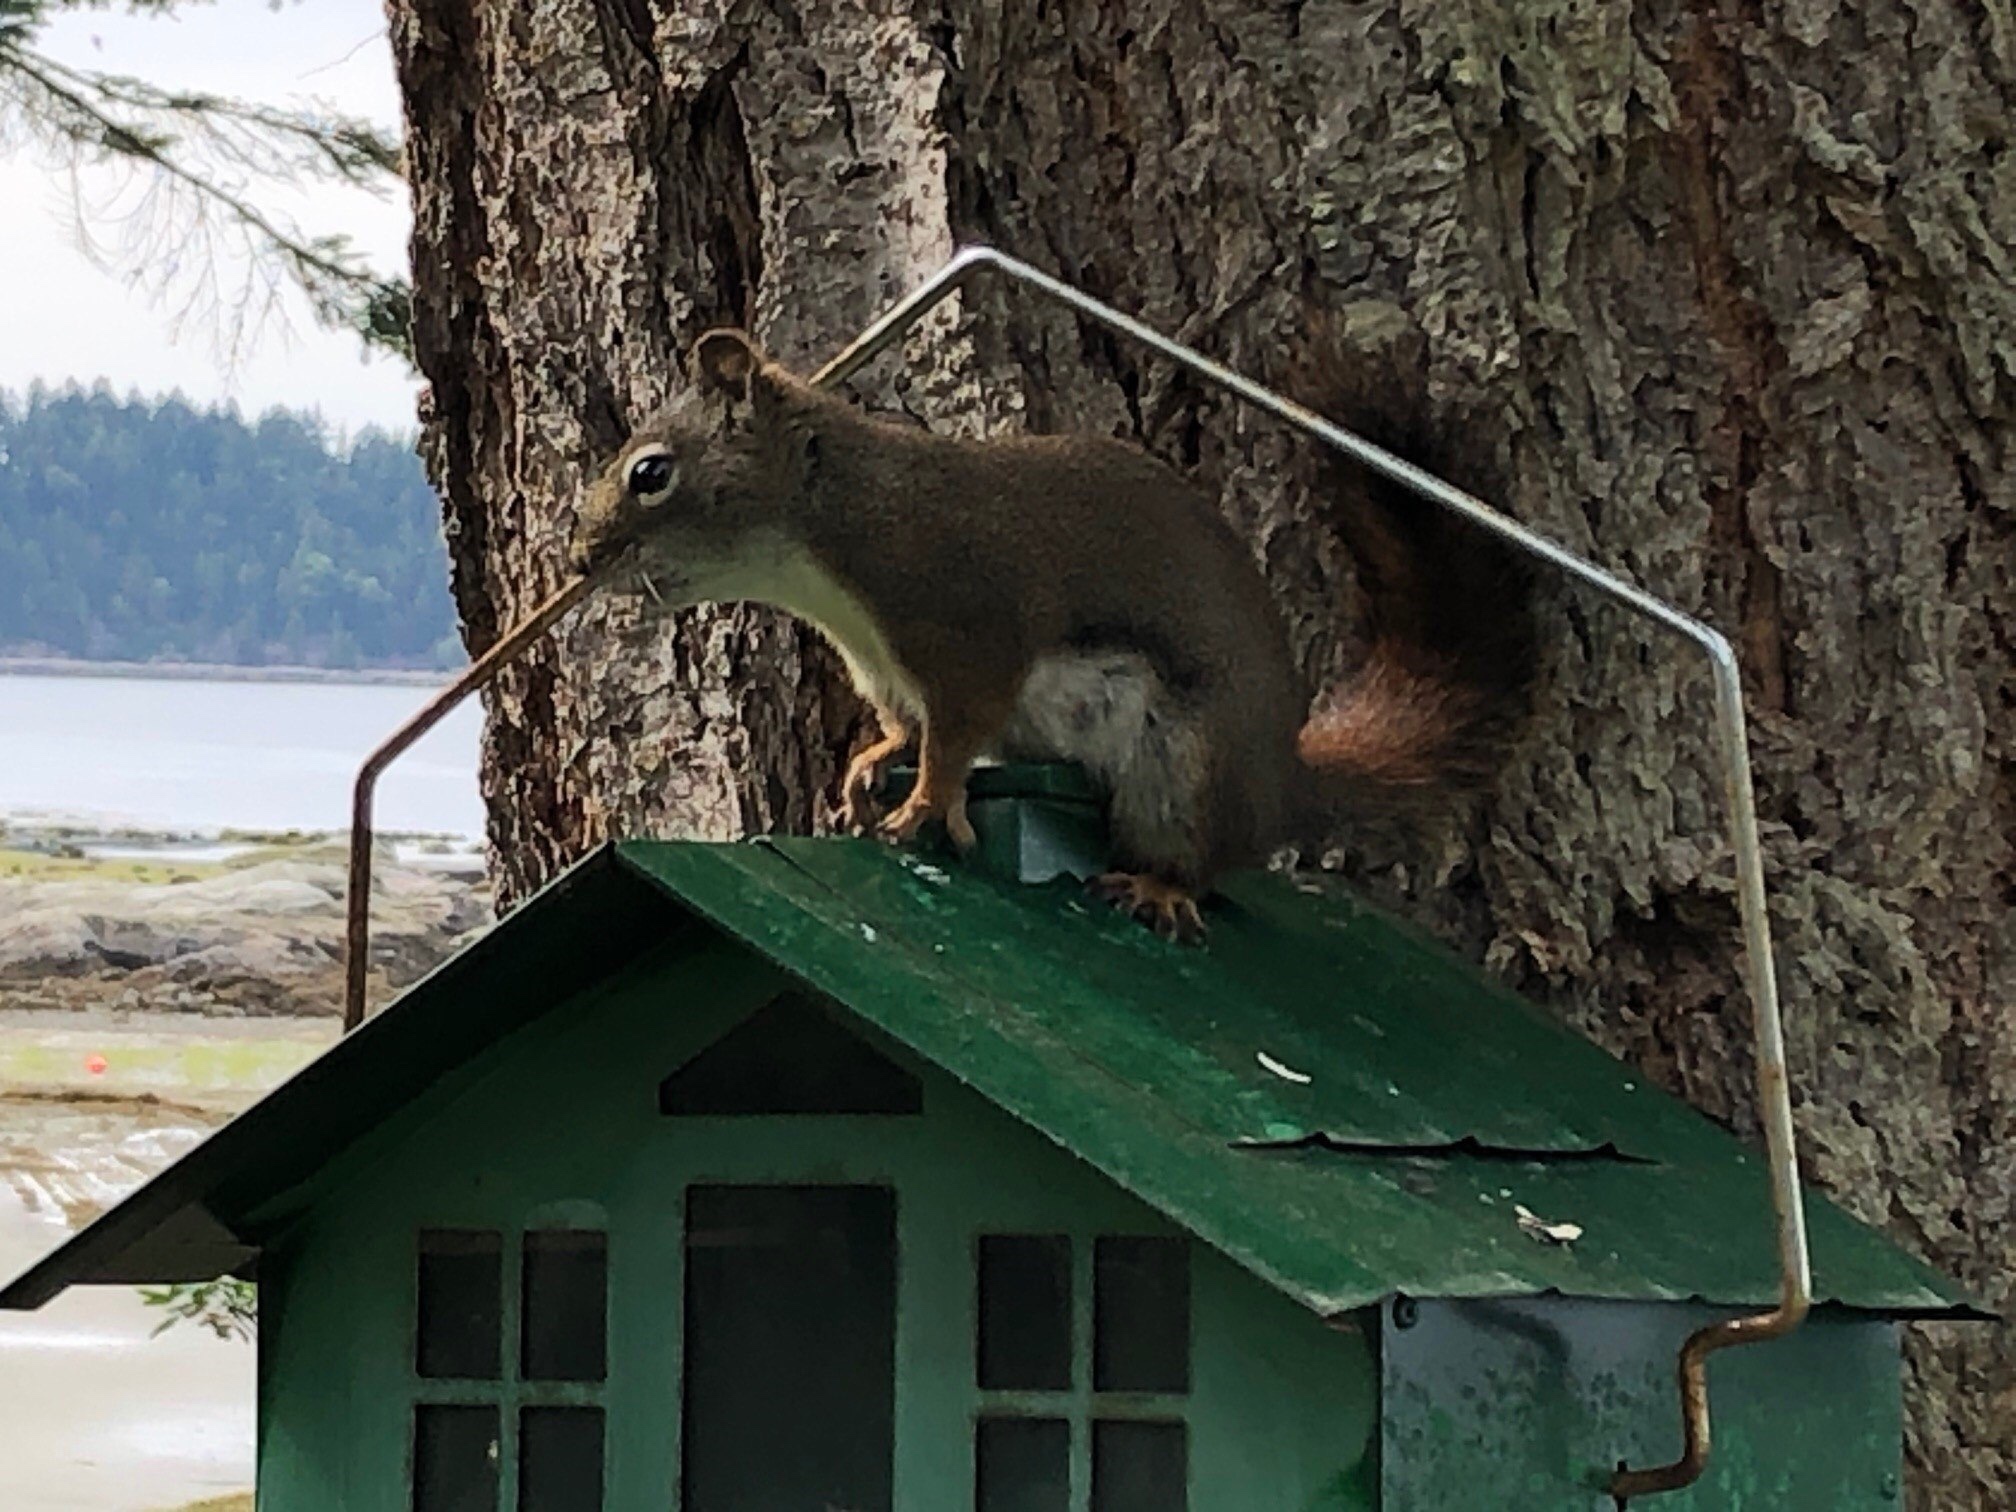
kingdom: Animalia
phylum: Chordata
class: Mammalia
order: Rodentia
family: Sciuridae
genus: Tamiasciurus
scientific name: Tamiasciurus hudsonicus
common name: Red squirrel
